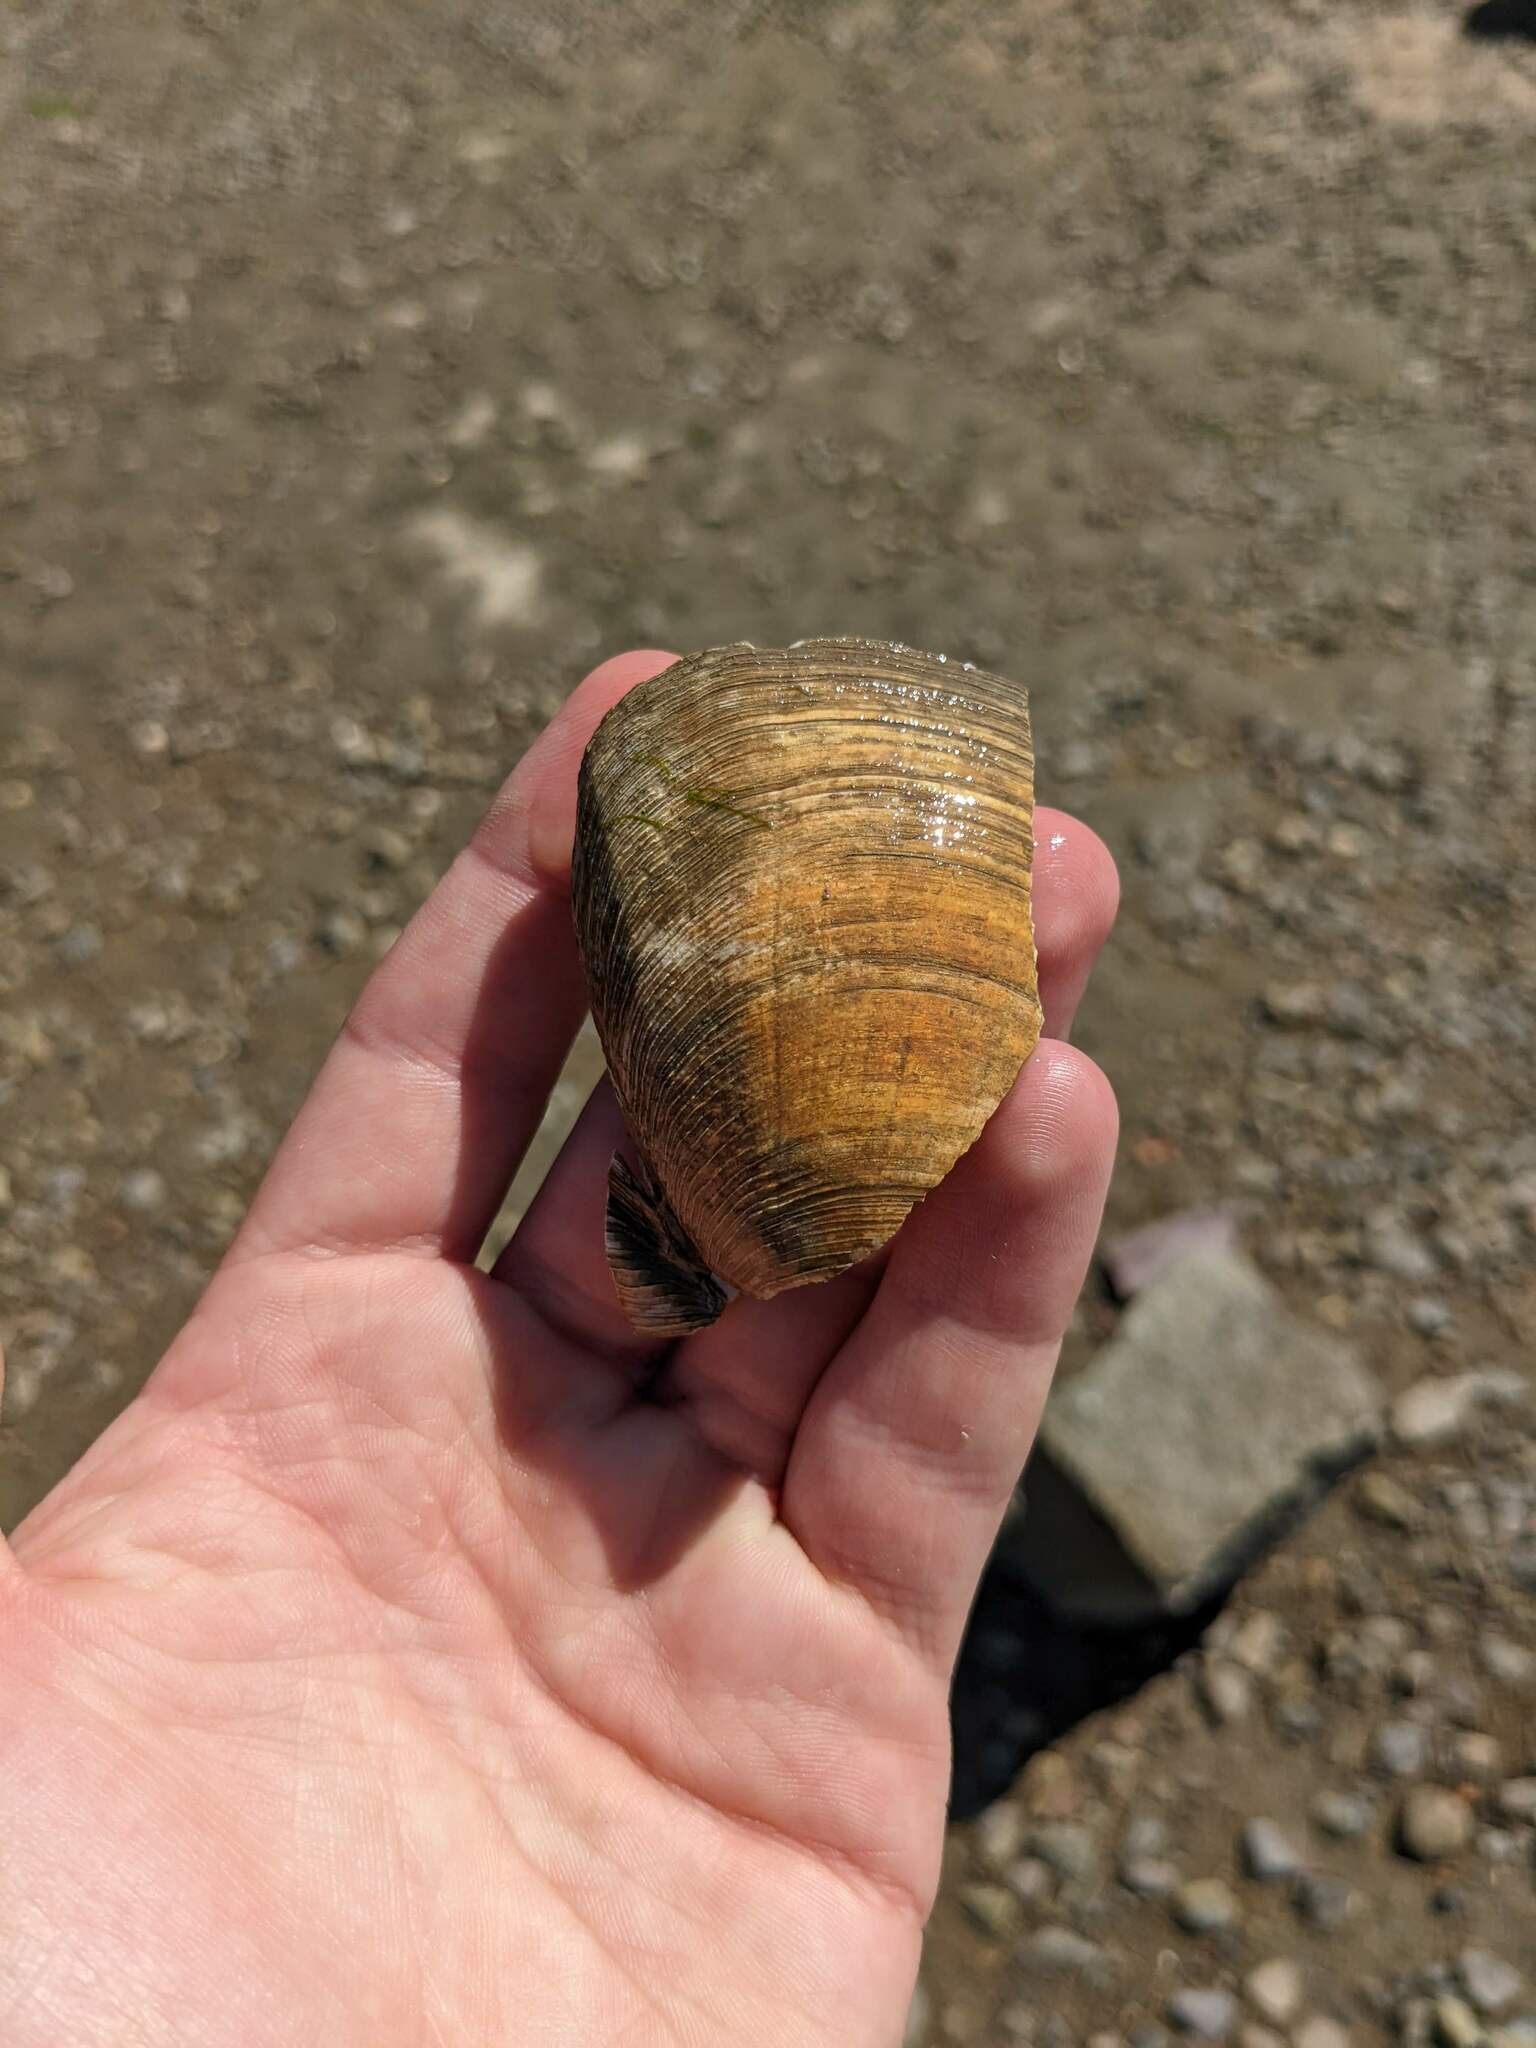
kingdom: Animalia
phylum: Mollusca
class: Bivalvia
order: Venerida
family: Veneridae
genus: Mercenaria
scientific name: Mercenaria mercenaria
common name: American hard-shelled clam
